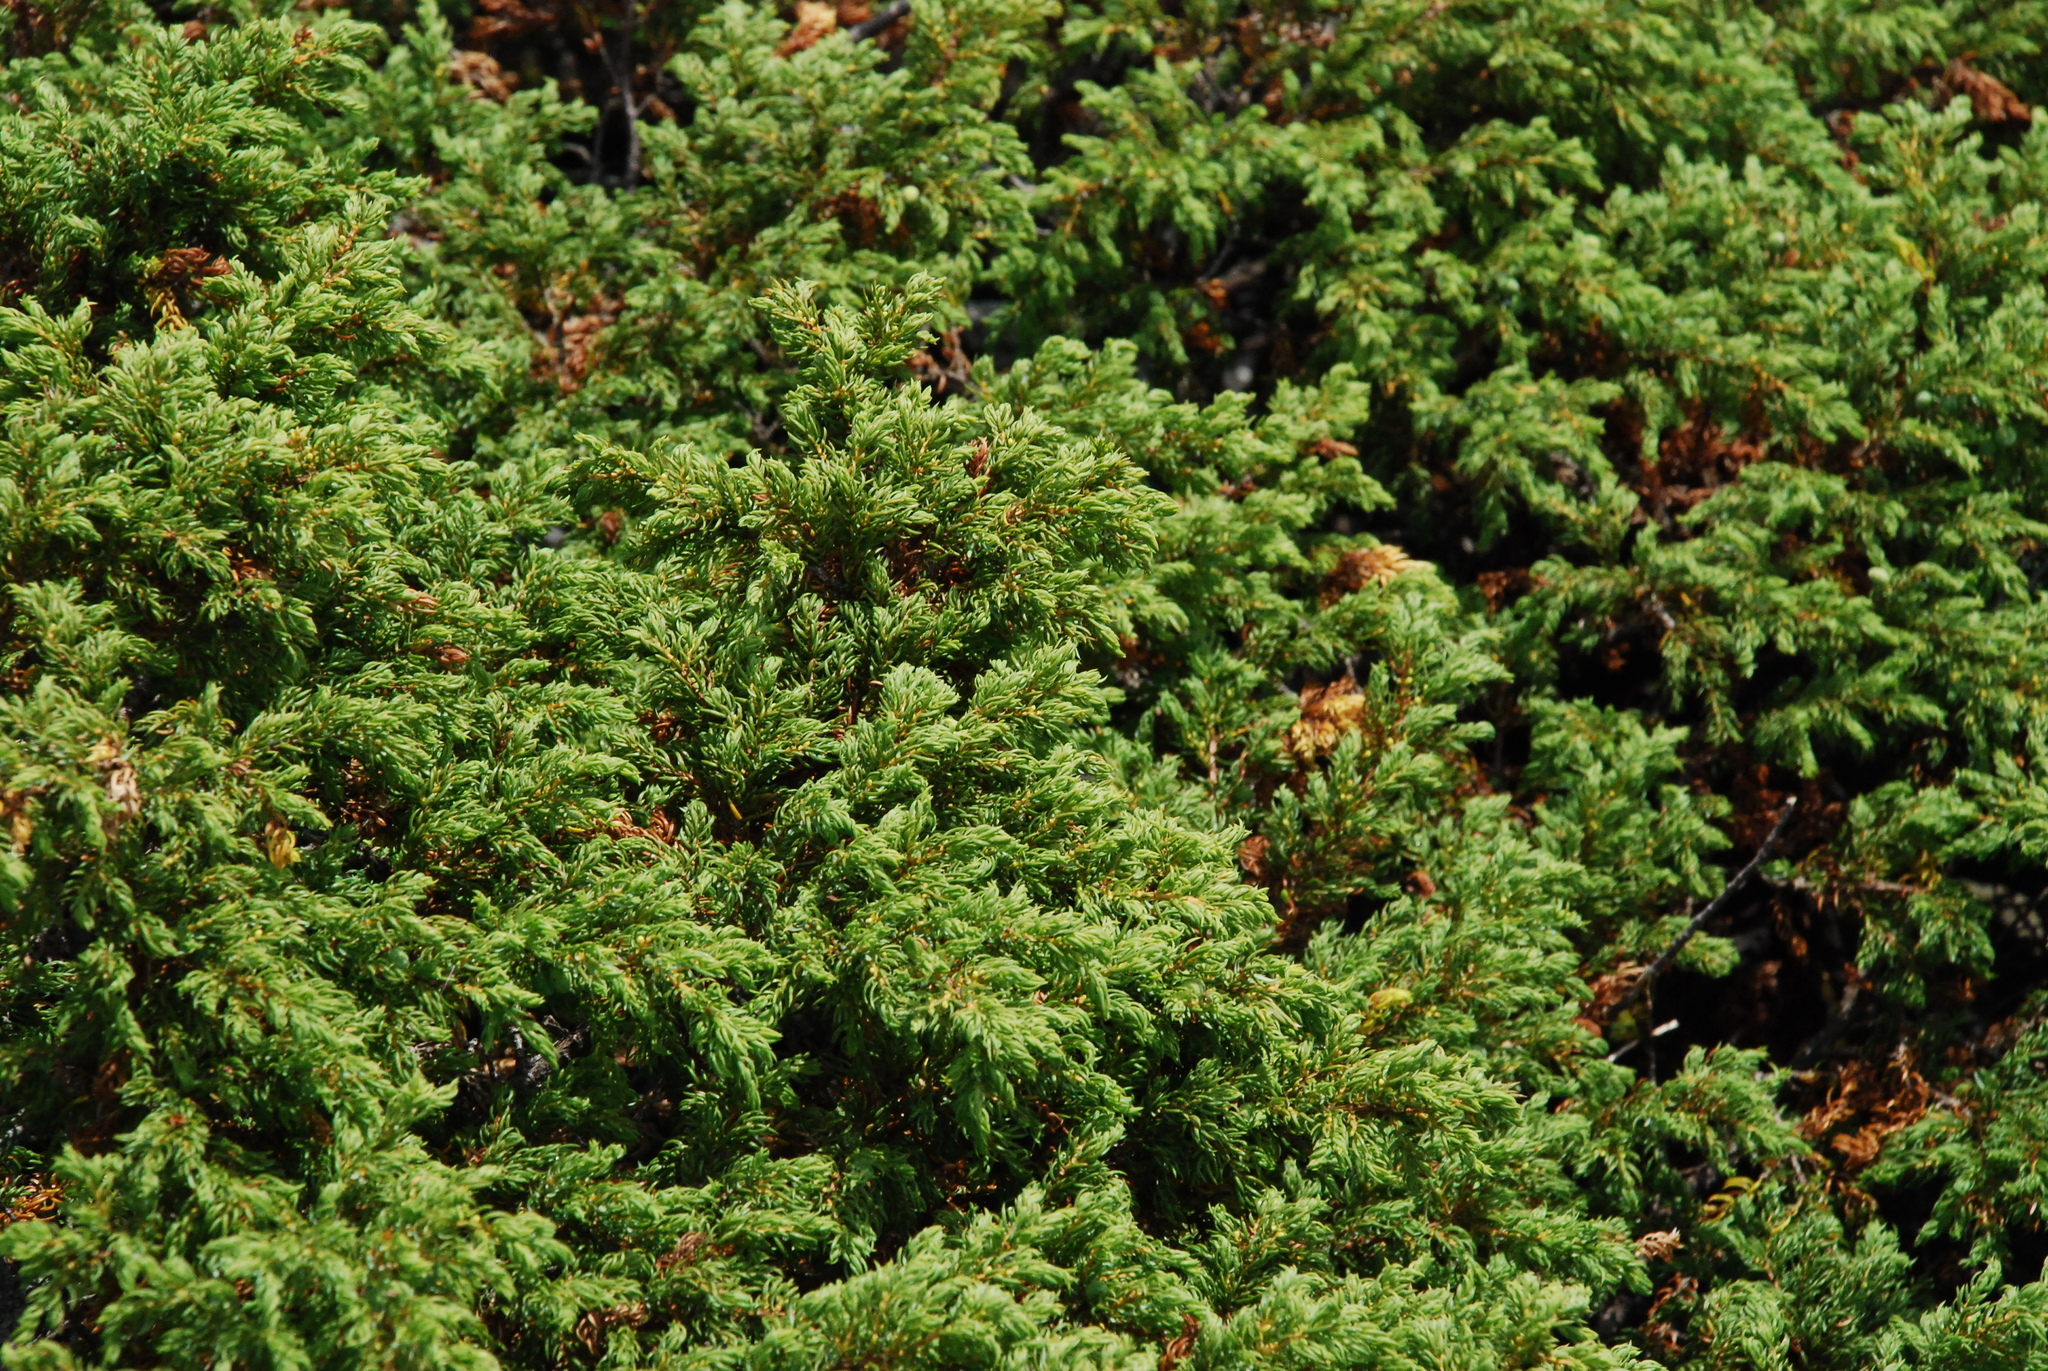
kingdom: Plantae
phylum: Tracheophyta
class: Pinopsida
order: Pinales
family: Cupressaceae
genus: Juniperus
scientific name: Juniperus communis
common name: Common juniper
